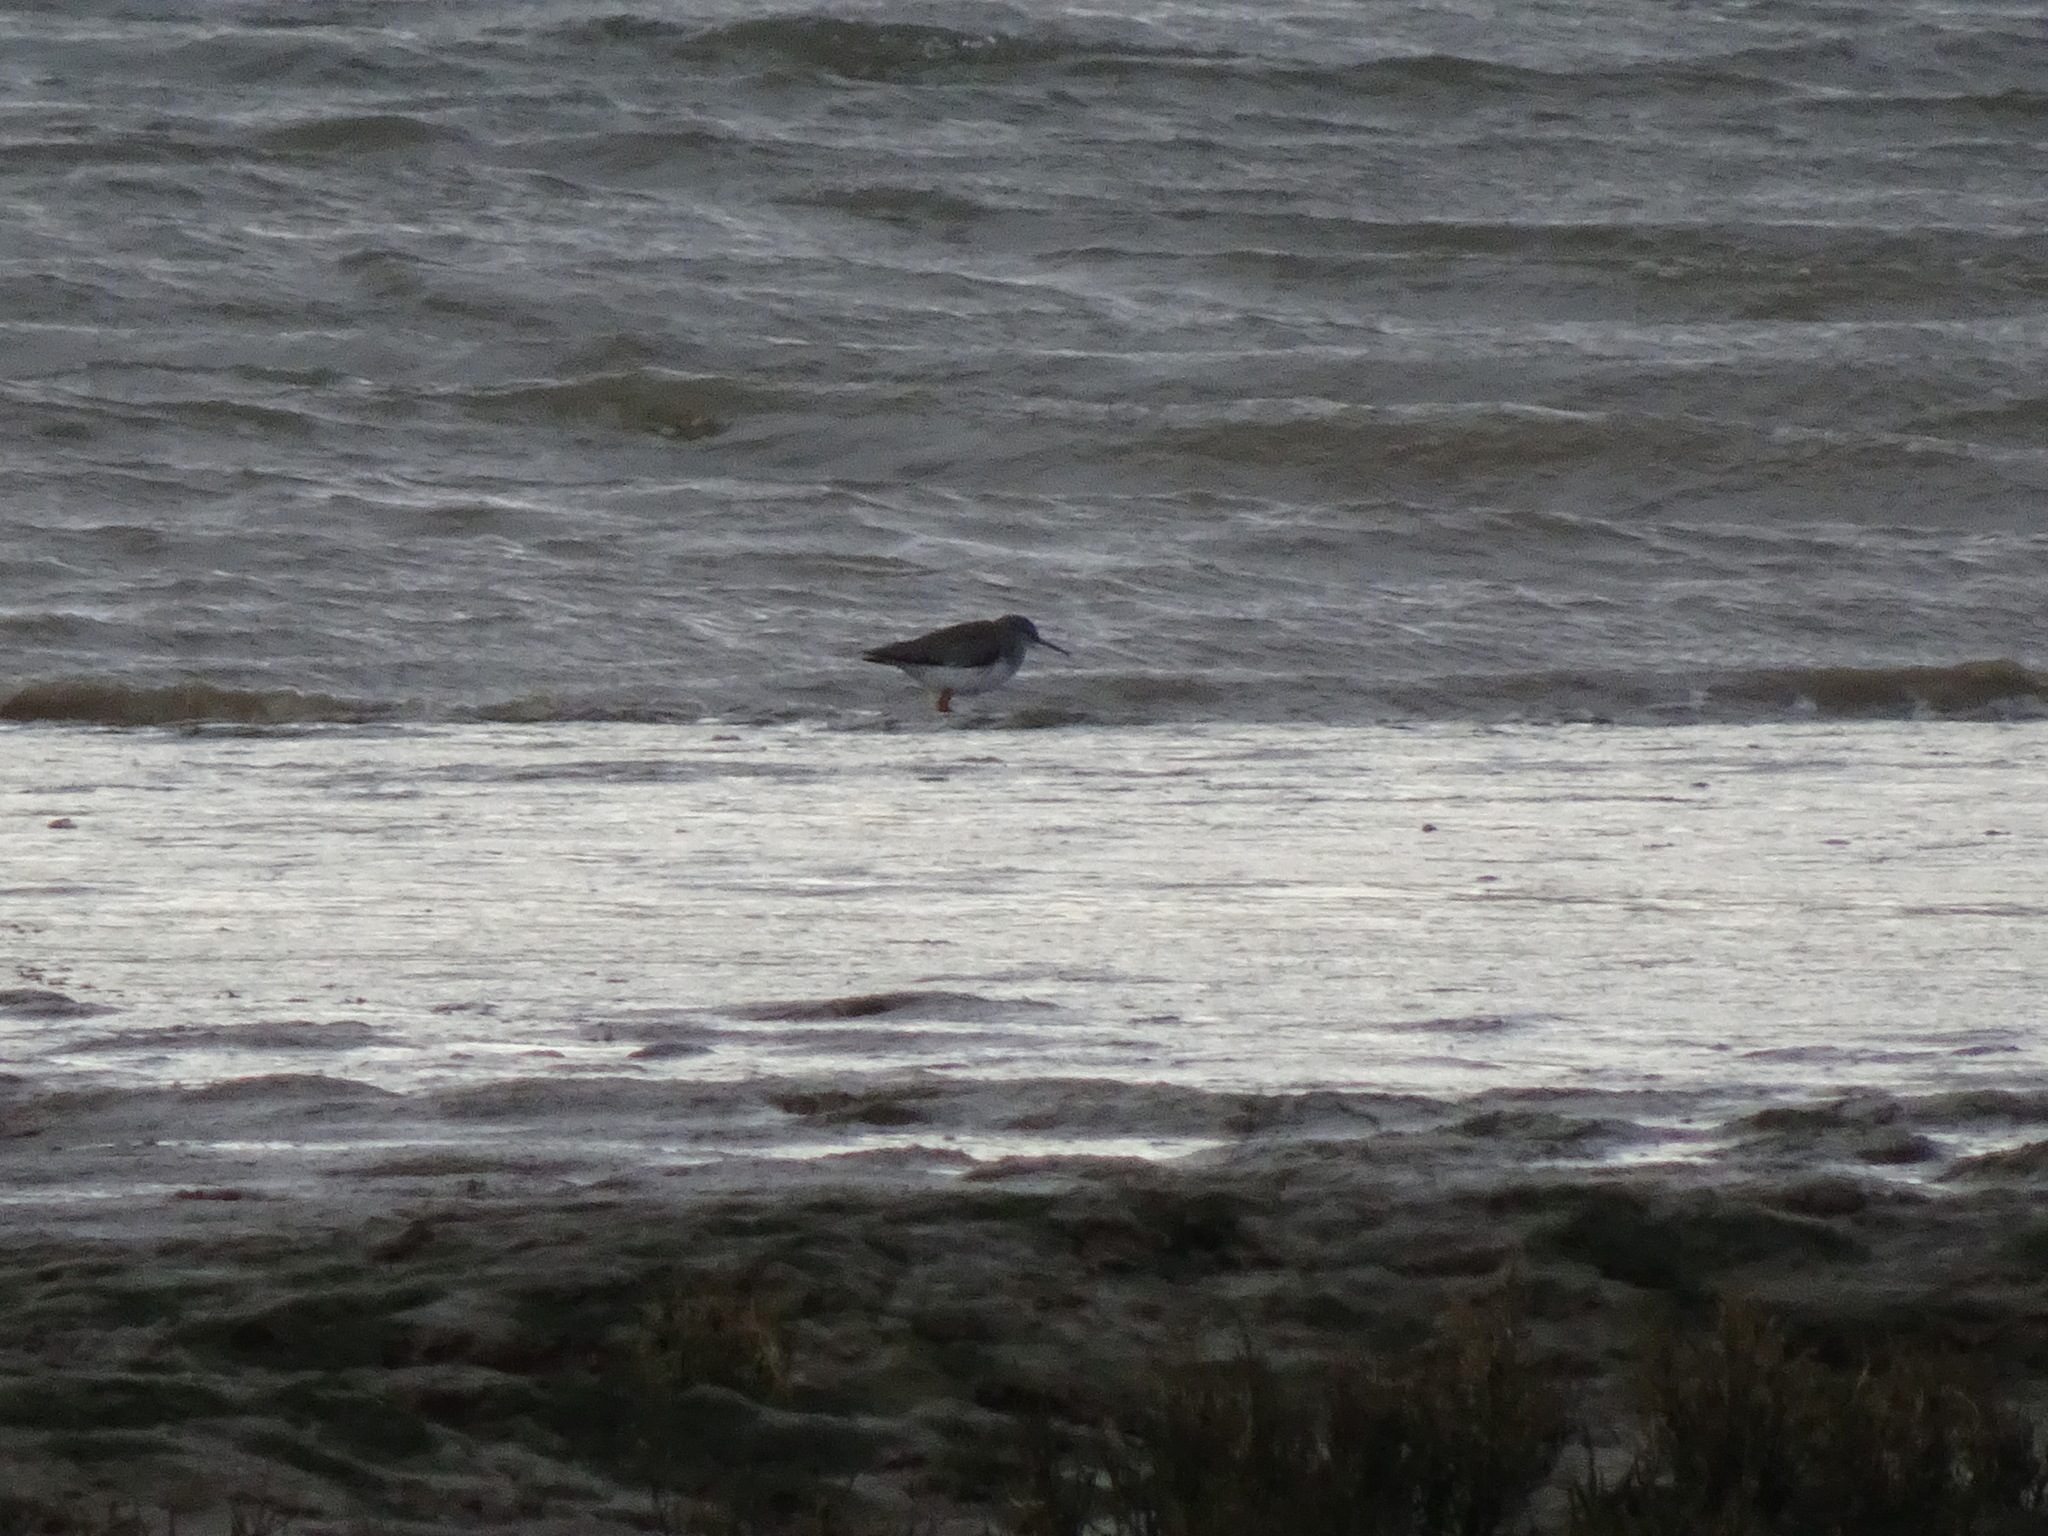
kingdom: Animalia
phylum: Chordata
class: Aves
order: Charadriiformes
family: Scolopacidae
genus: Tringa
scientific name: Tringa totanus
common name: Common redshank
